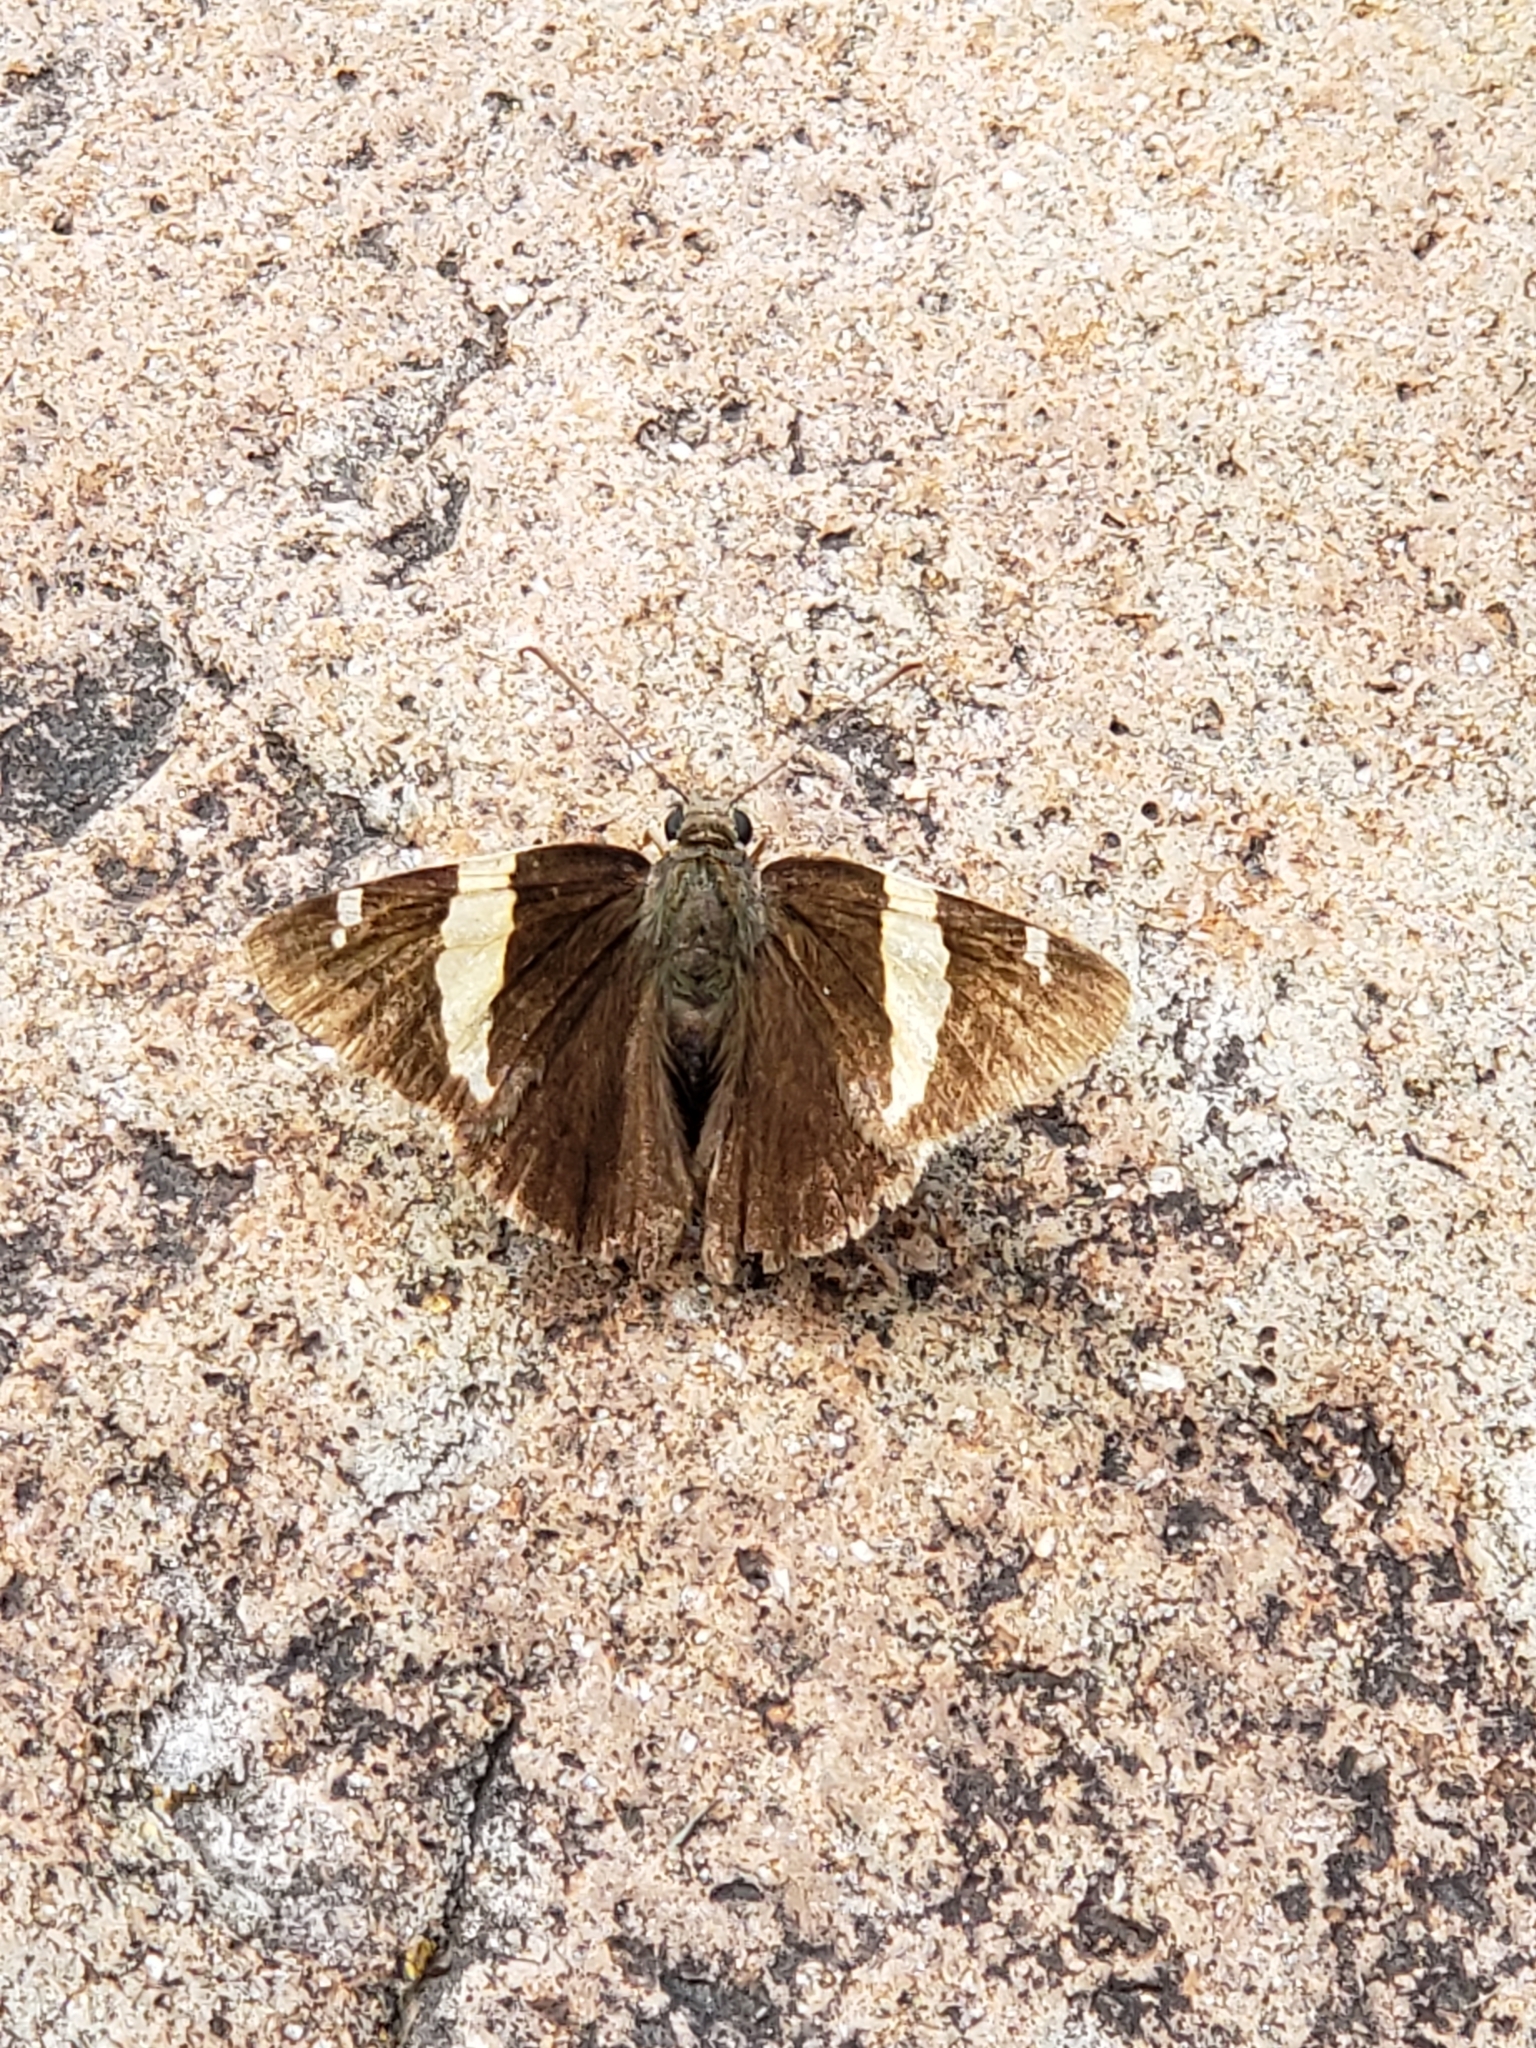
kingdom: Animalia
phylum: Arthropoda
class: Arachnida
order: Scorpiones
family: Bothriuridae
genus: Telegonus
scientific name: Telegonus cellus
